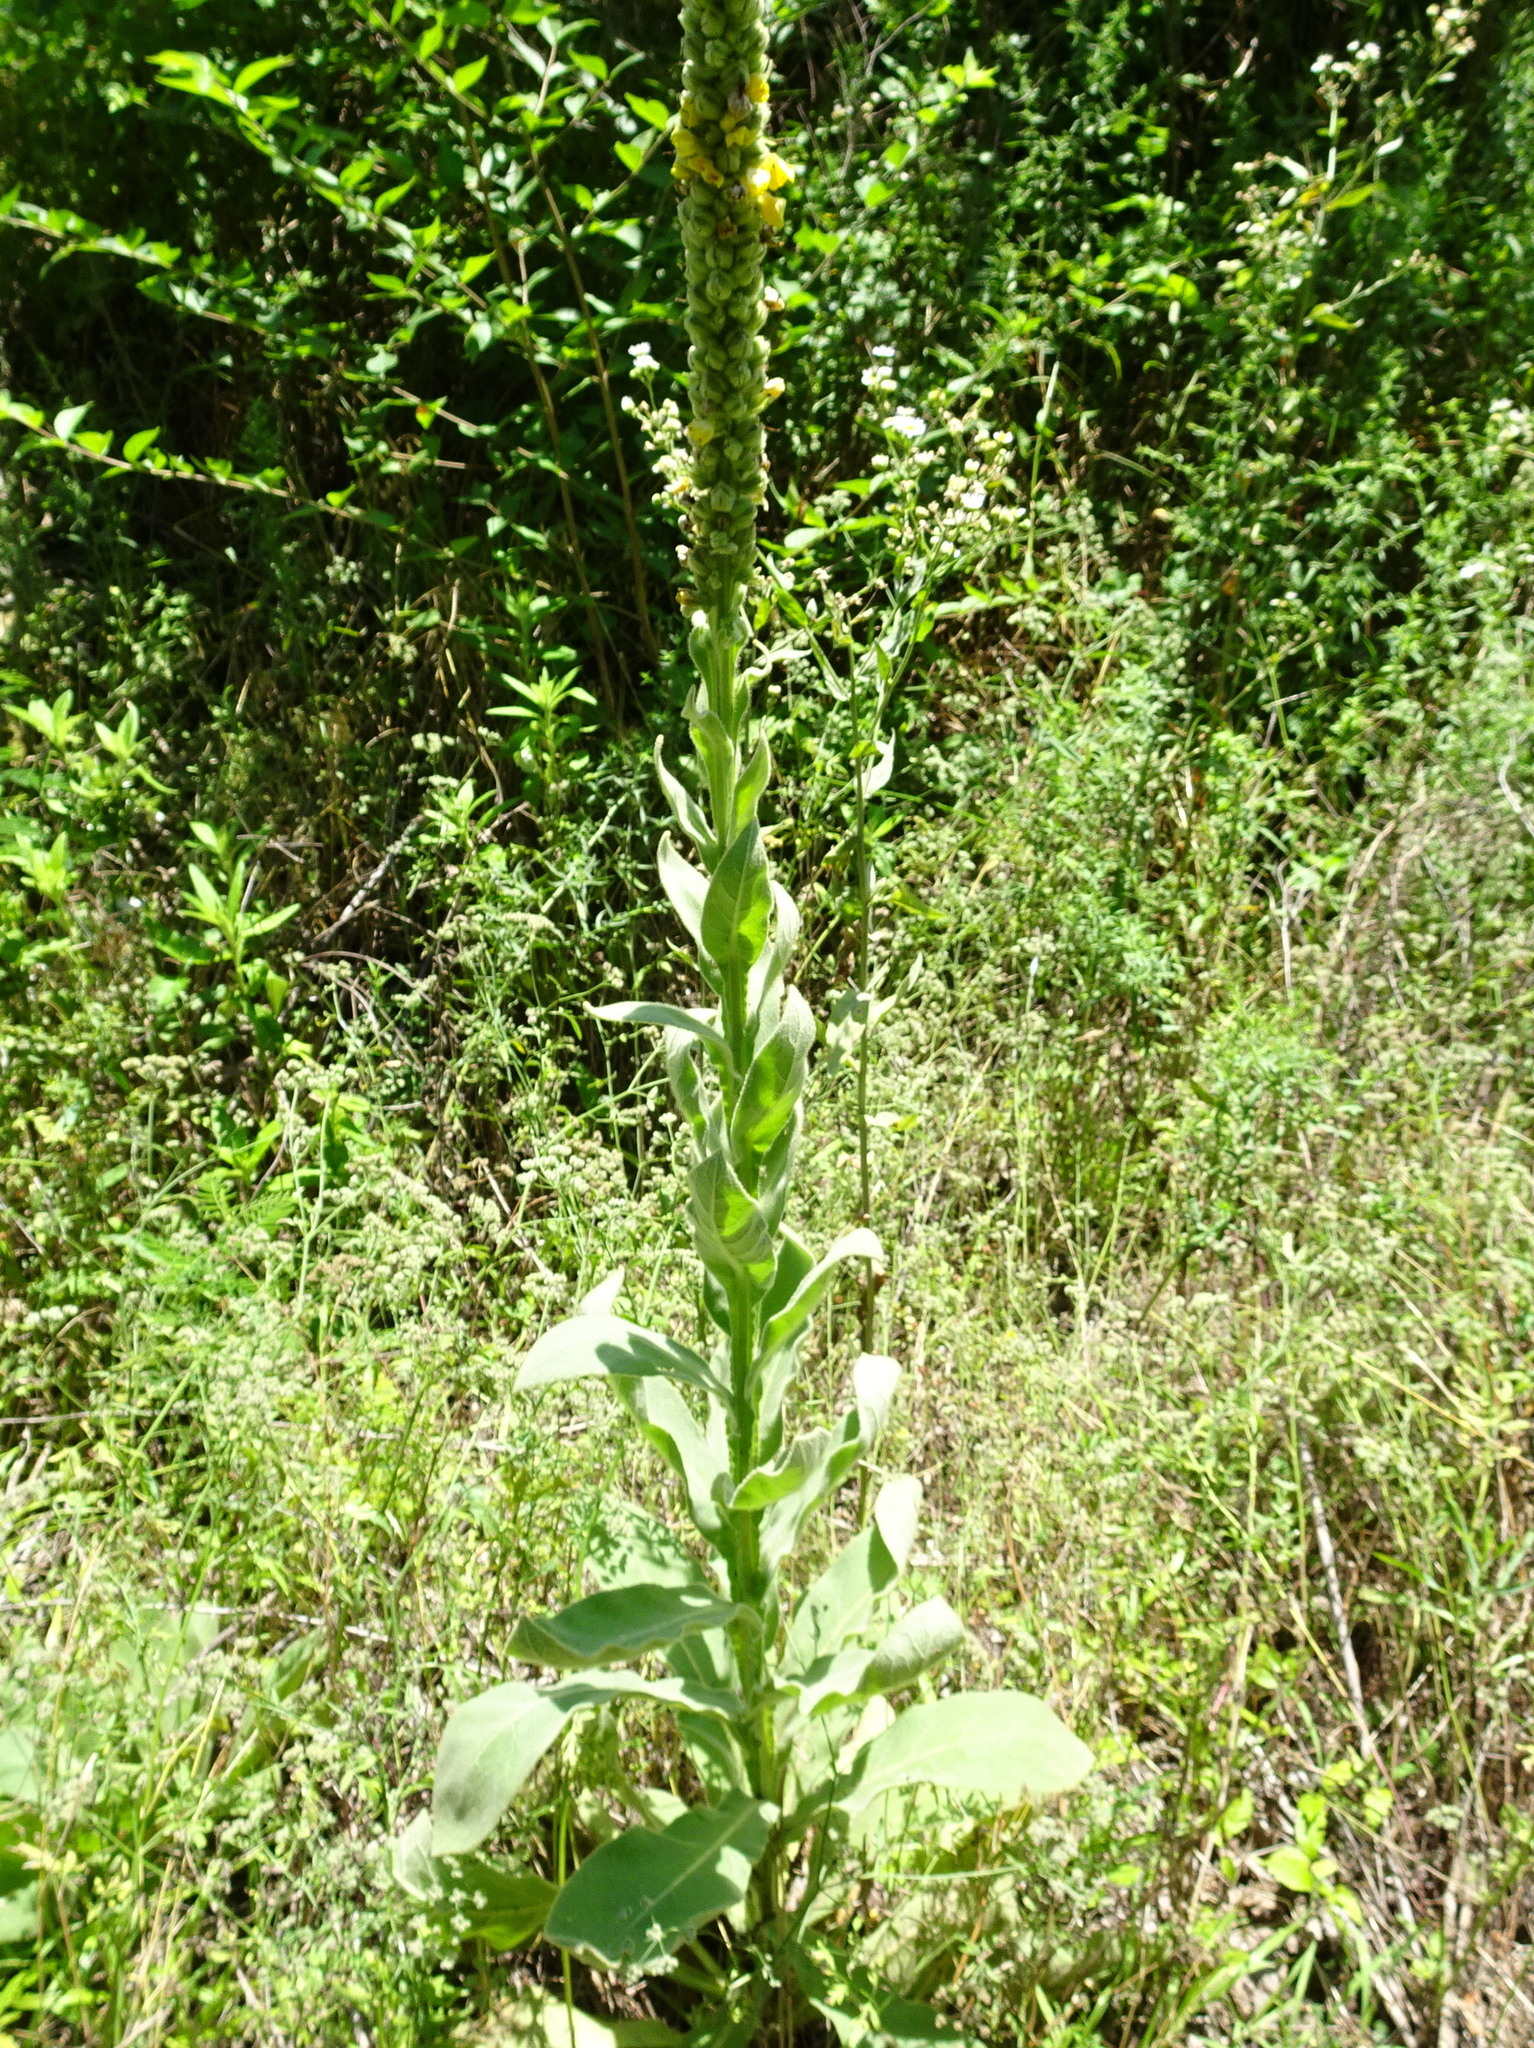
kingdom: Plantae
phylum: Tracheophyta
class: Magnoliopsida
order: Lamiales
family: Scrophulariaceae
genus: Verbascum
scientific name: Verbascum thapsus
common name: Common mullein
